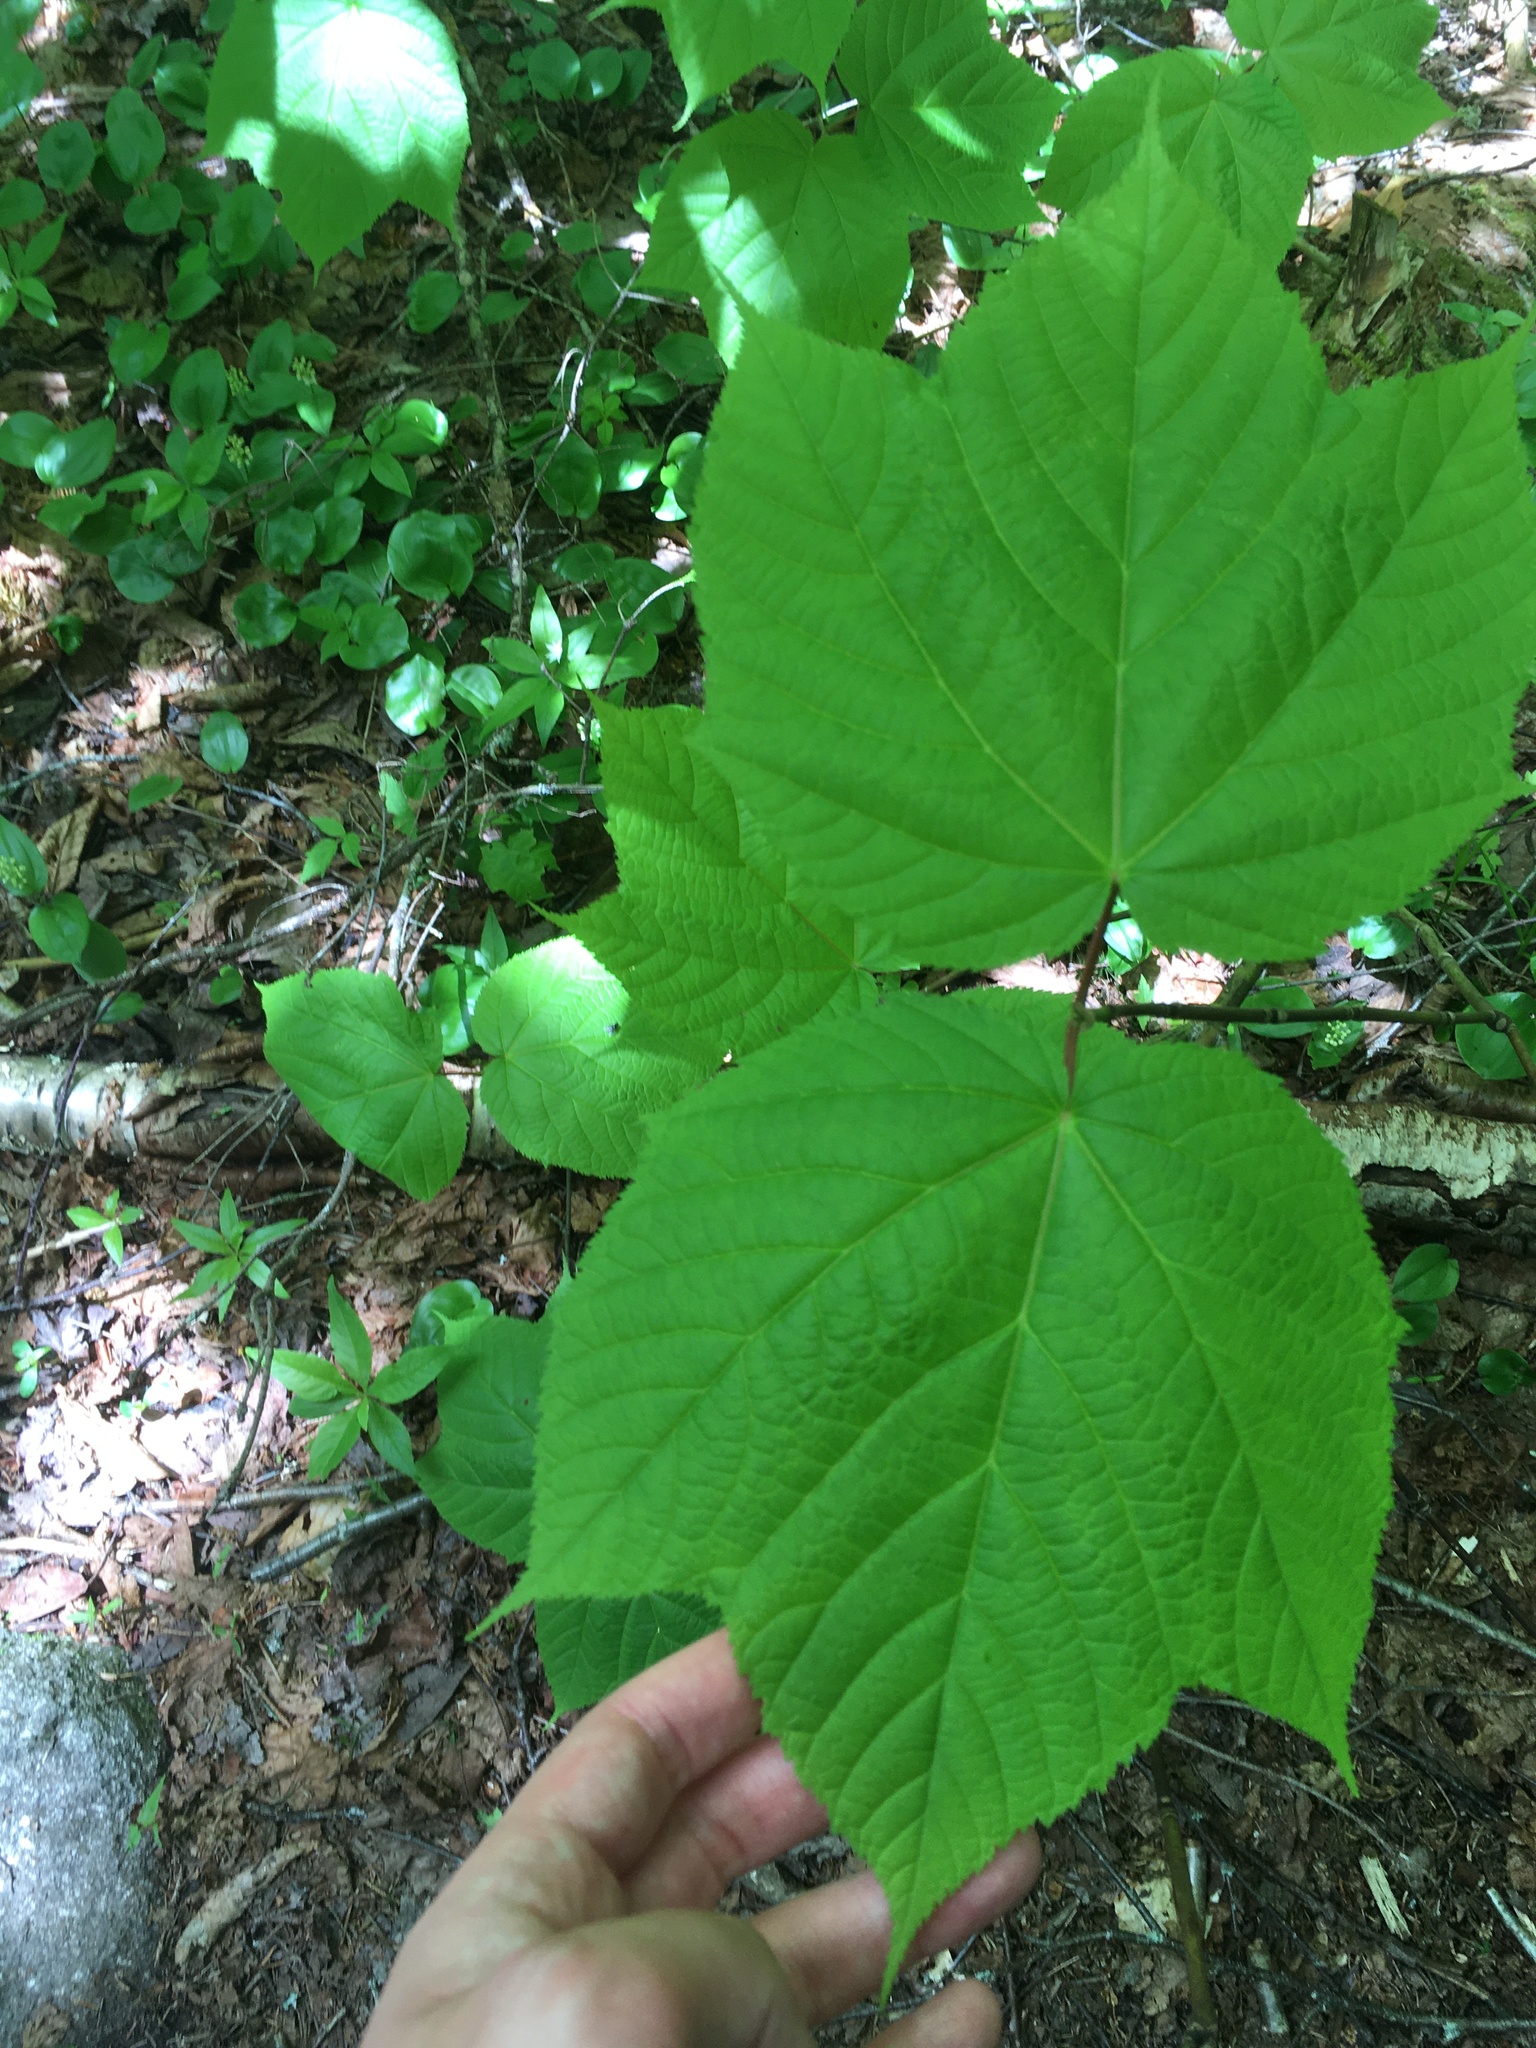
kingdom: Plantae
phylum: Tracheophyta
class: Magnoliopsida
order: Sapindales
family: Sapindaceae
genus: Acer
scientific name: Acer pensylvanicum
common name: Moosewood
